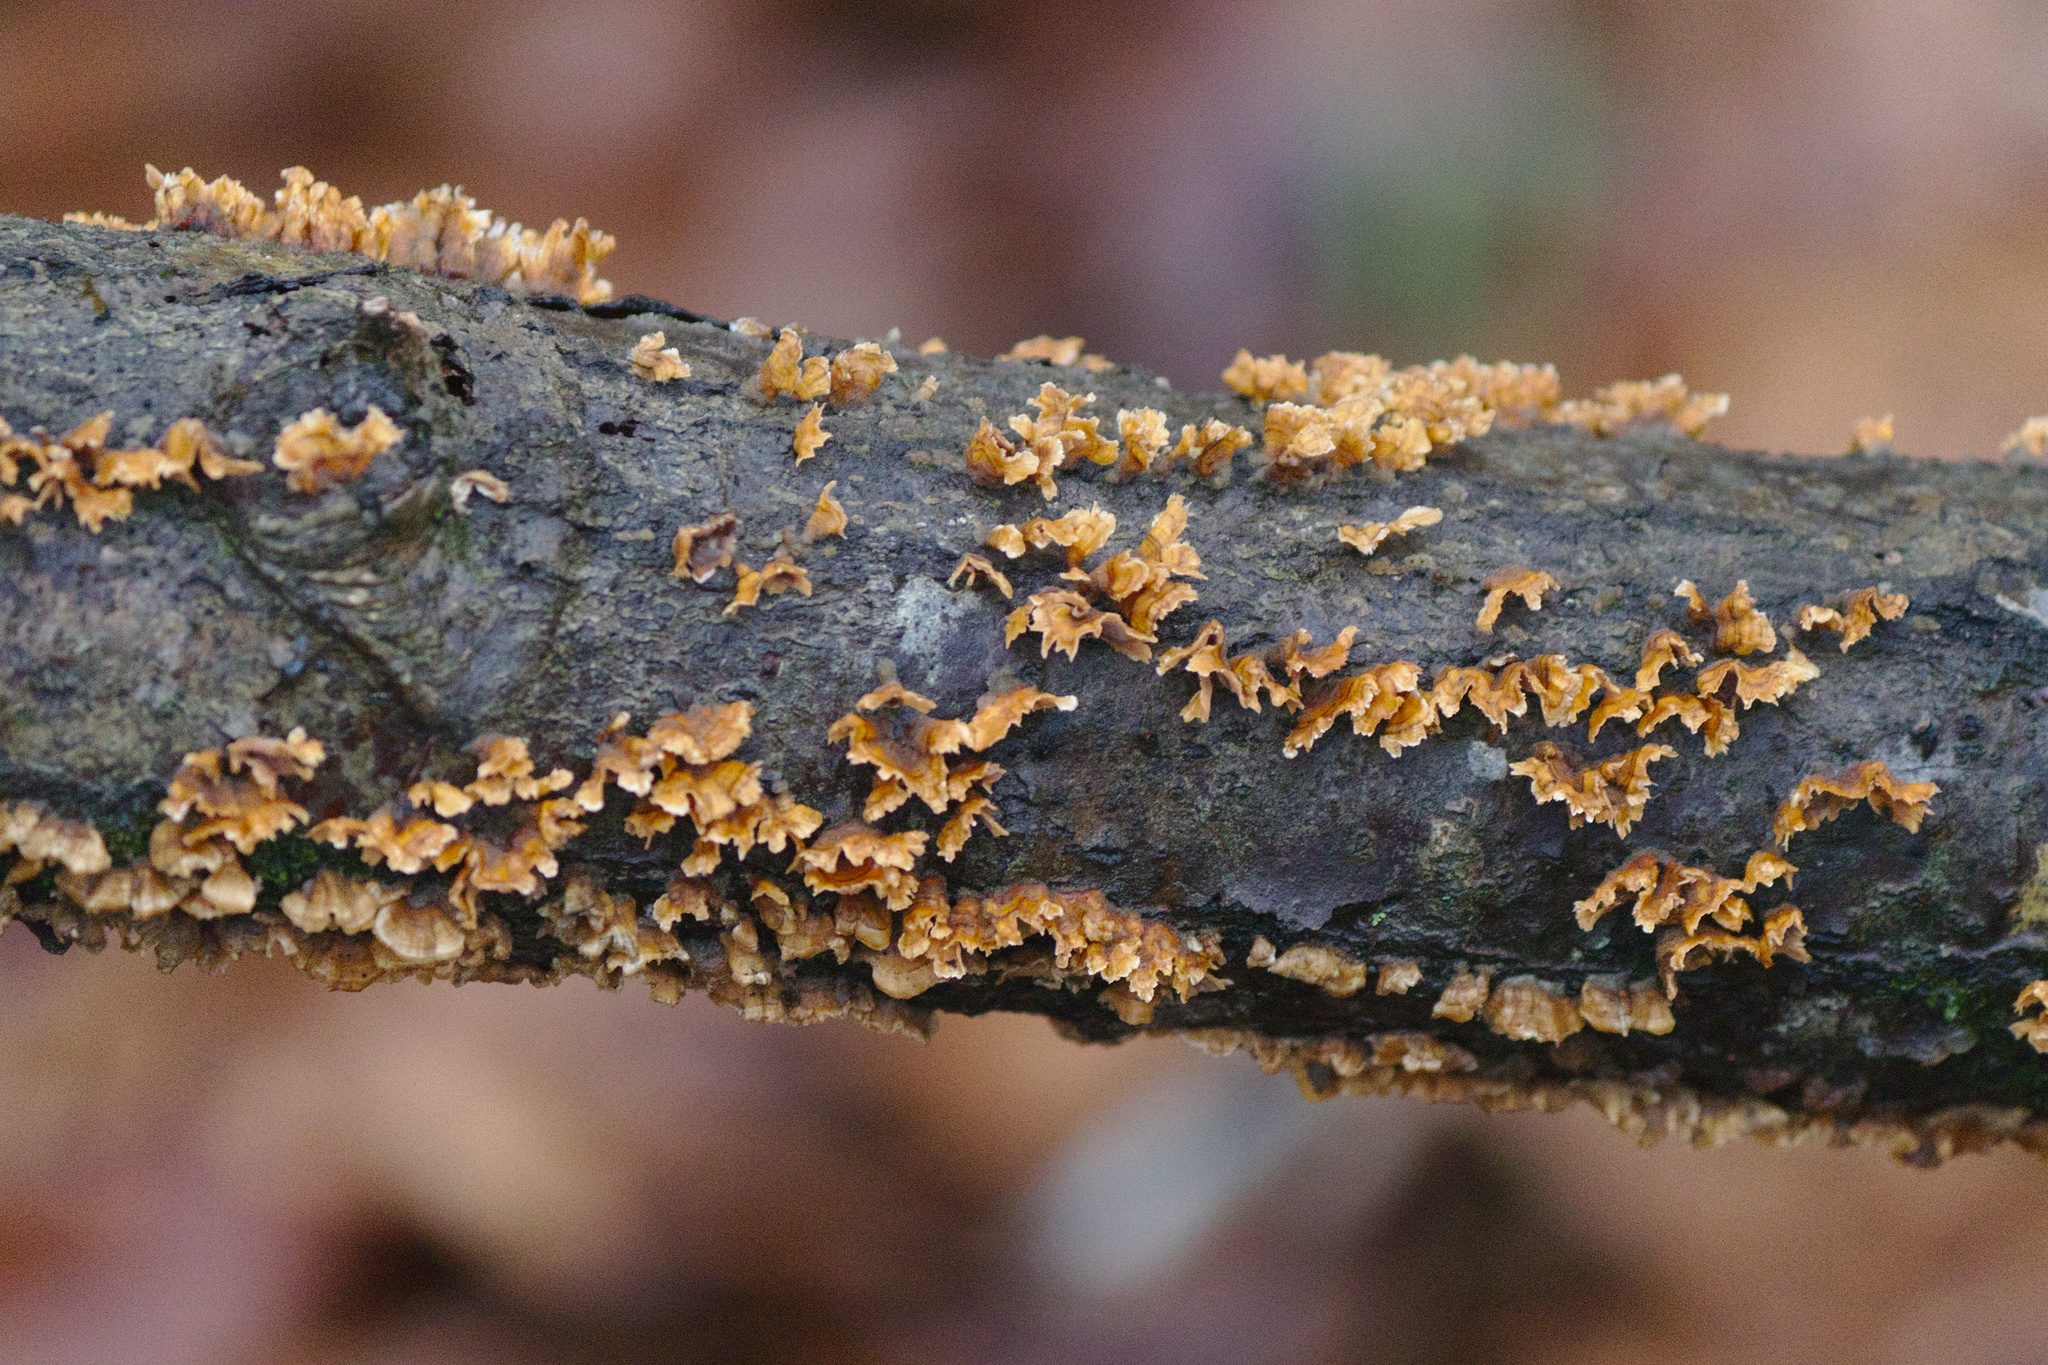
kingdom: Fungi
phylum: Basidiomycota
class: Agaricomycetes
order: Russulales
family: Stereaceae
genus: Stereum
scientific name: Stereum complicatum
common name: Crowded parchment
